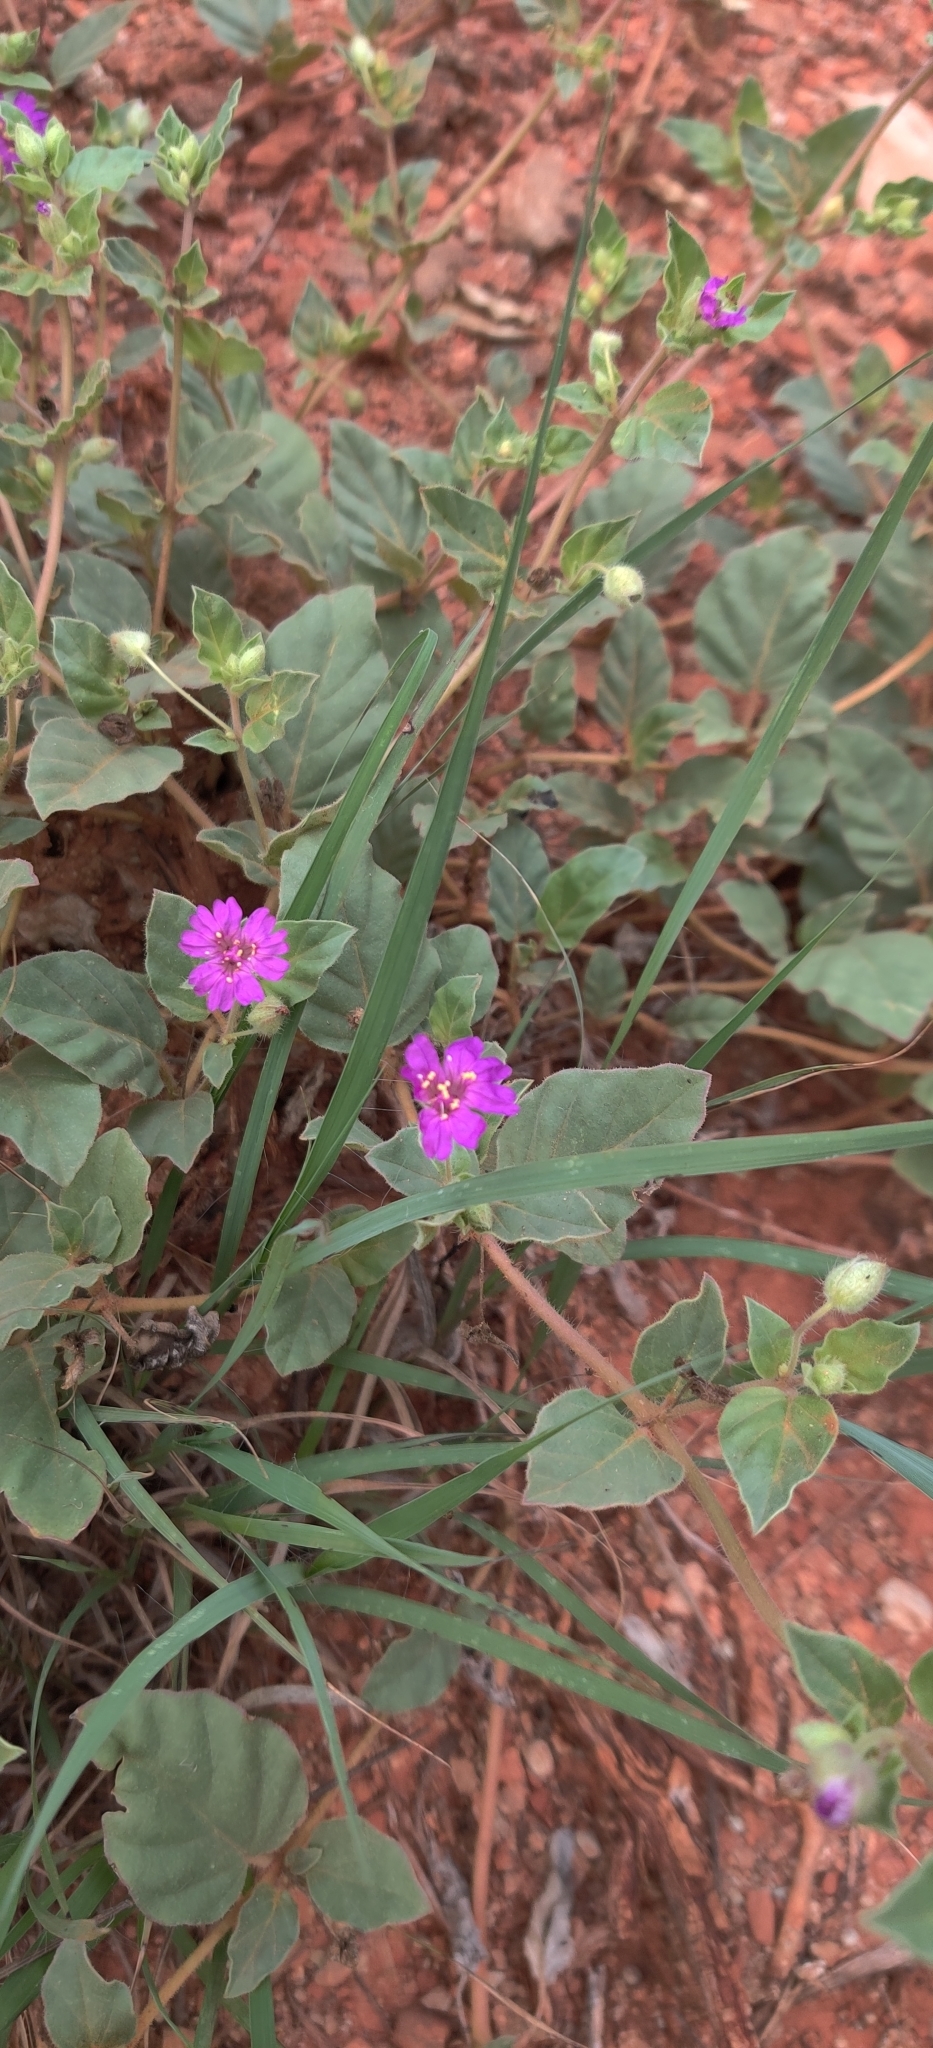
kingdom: Plantae
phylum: Tracheophyta
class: Magnoliopsida
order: Caryophyllales
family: Nyctaginaceae
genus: Allionia
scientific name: Allionia incarnata
